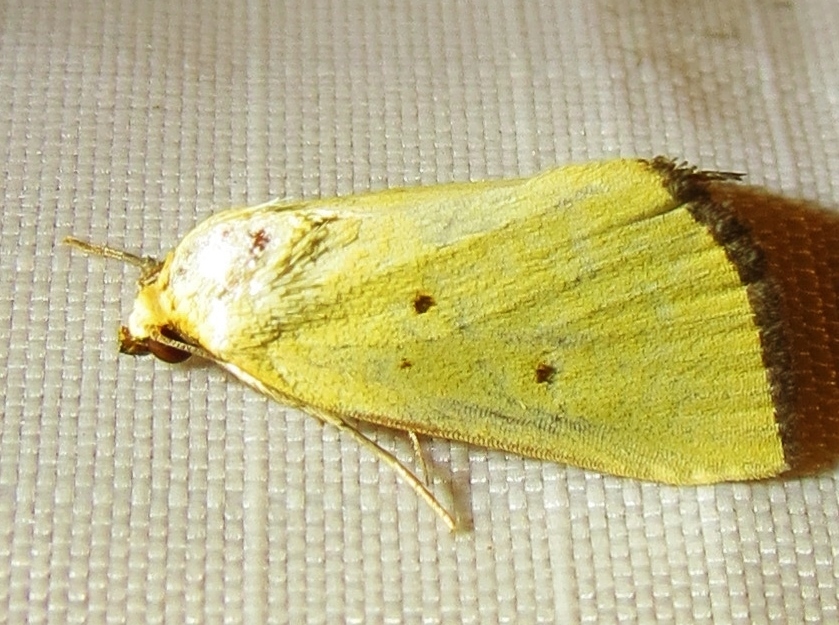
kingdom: Animalia
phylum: Arthropoda
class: Insecta
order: Lepidoptera
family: Noctuidae
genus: Marimatha
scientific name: Marimatha nigrofimbria
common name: Black-bordered lemon moth
